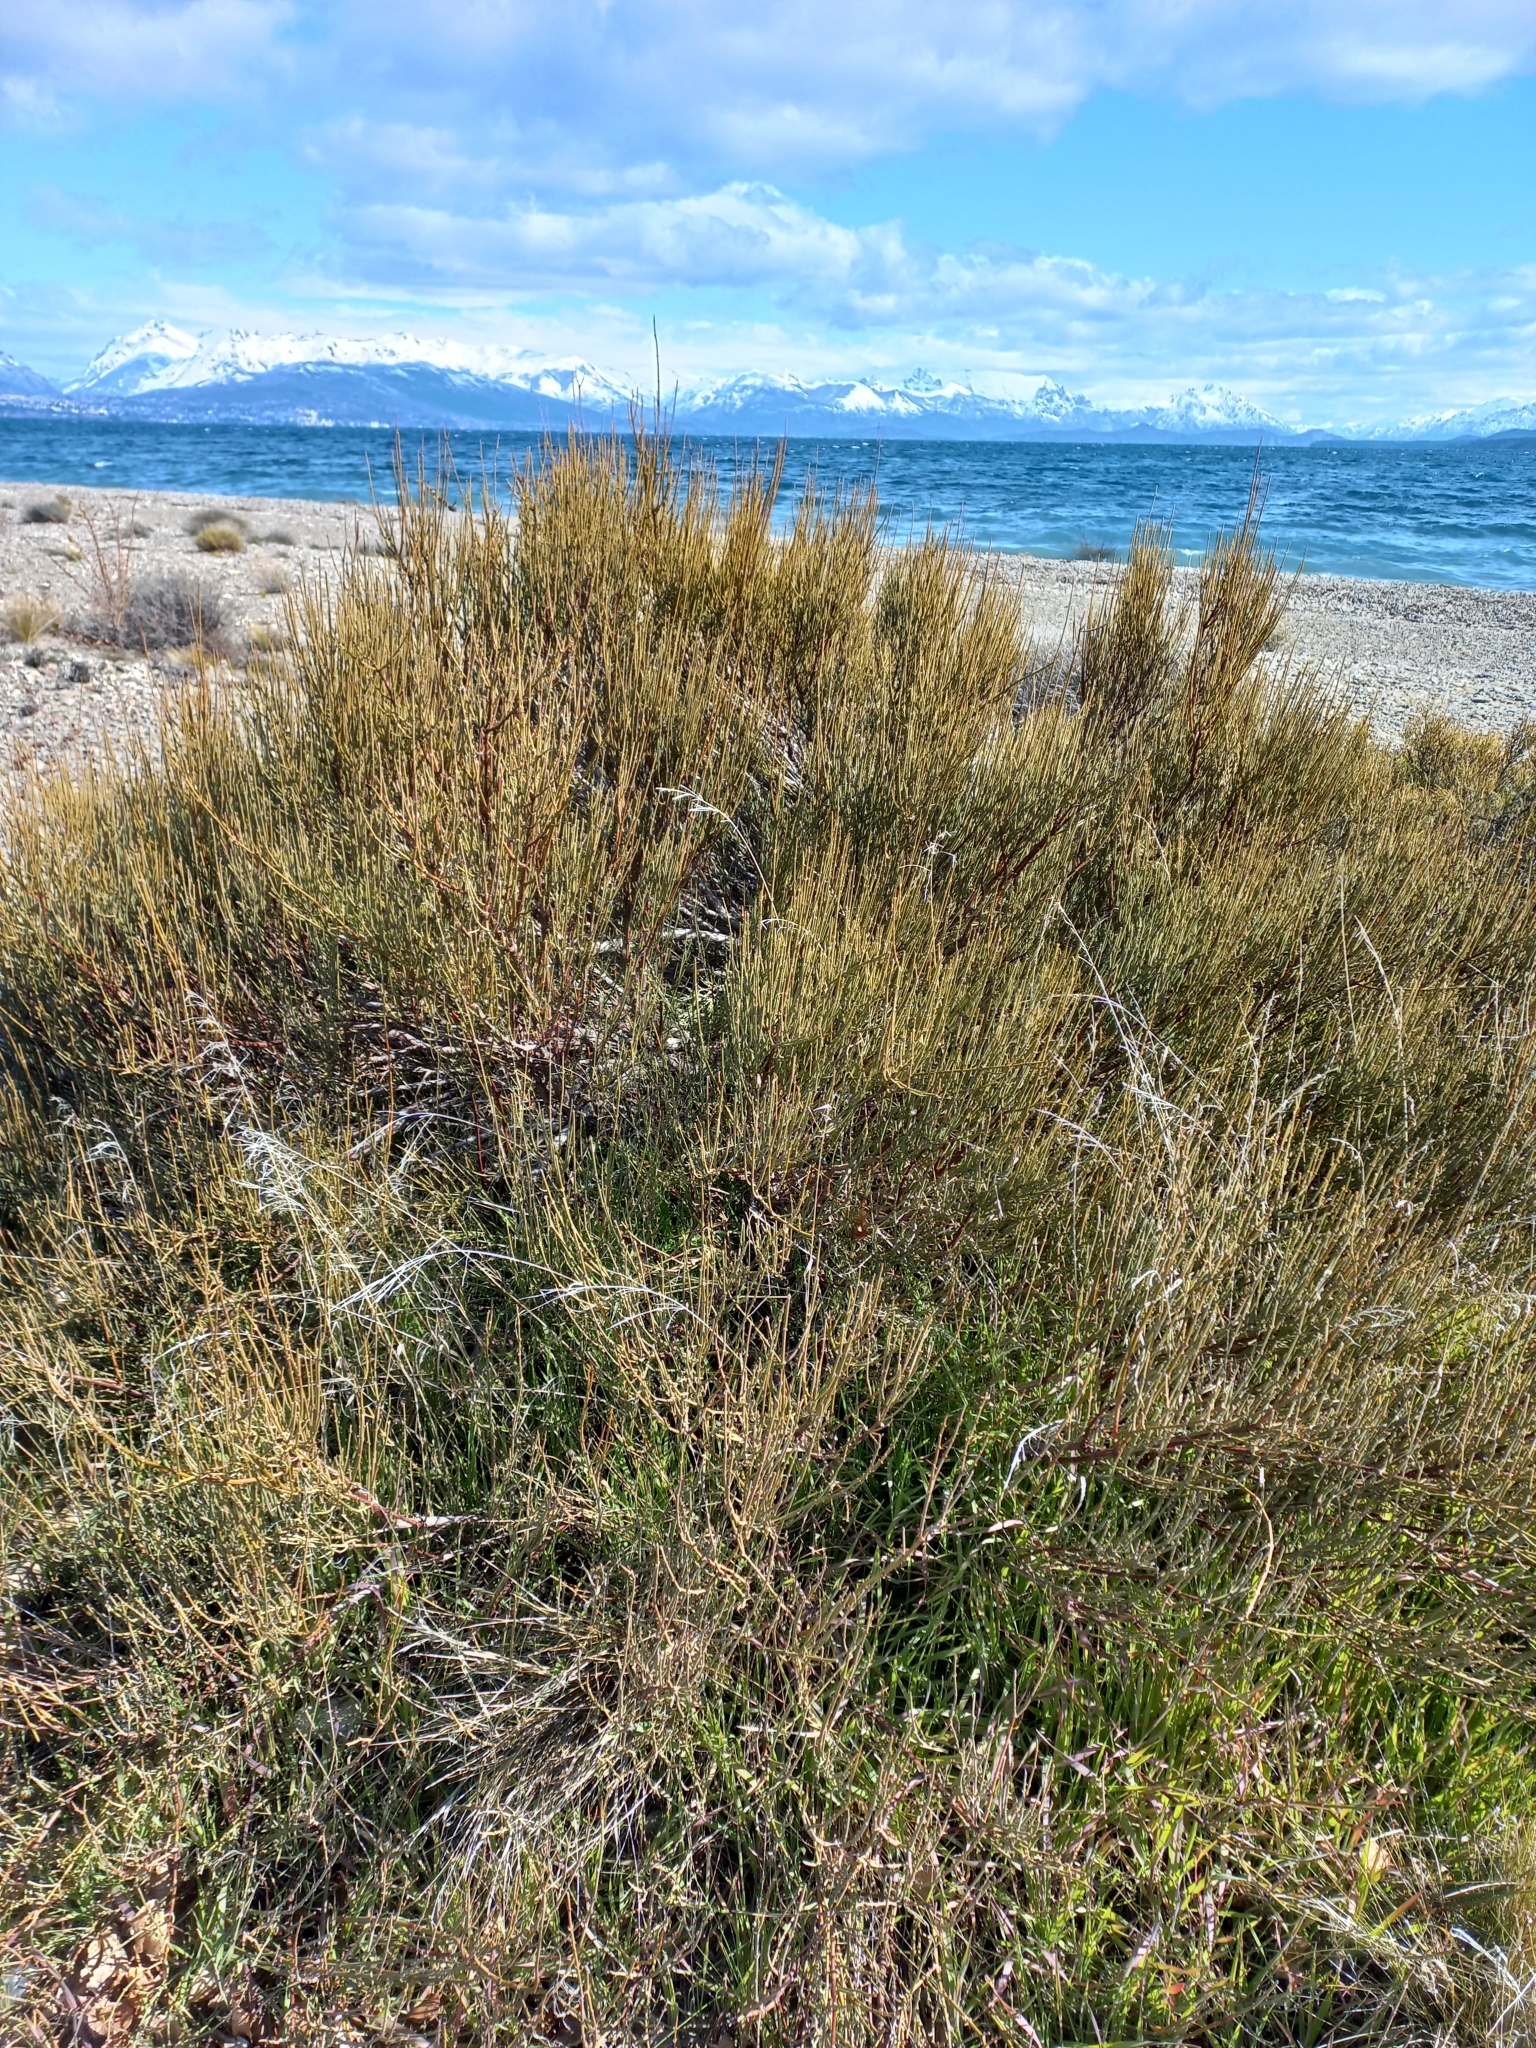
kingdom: Plantae
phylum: Tracheophyta
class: Gnetopsida
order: Ephedrales
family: Ephedraceae
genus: Ephedra
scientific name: Ephedra chilensis
